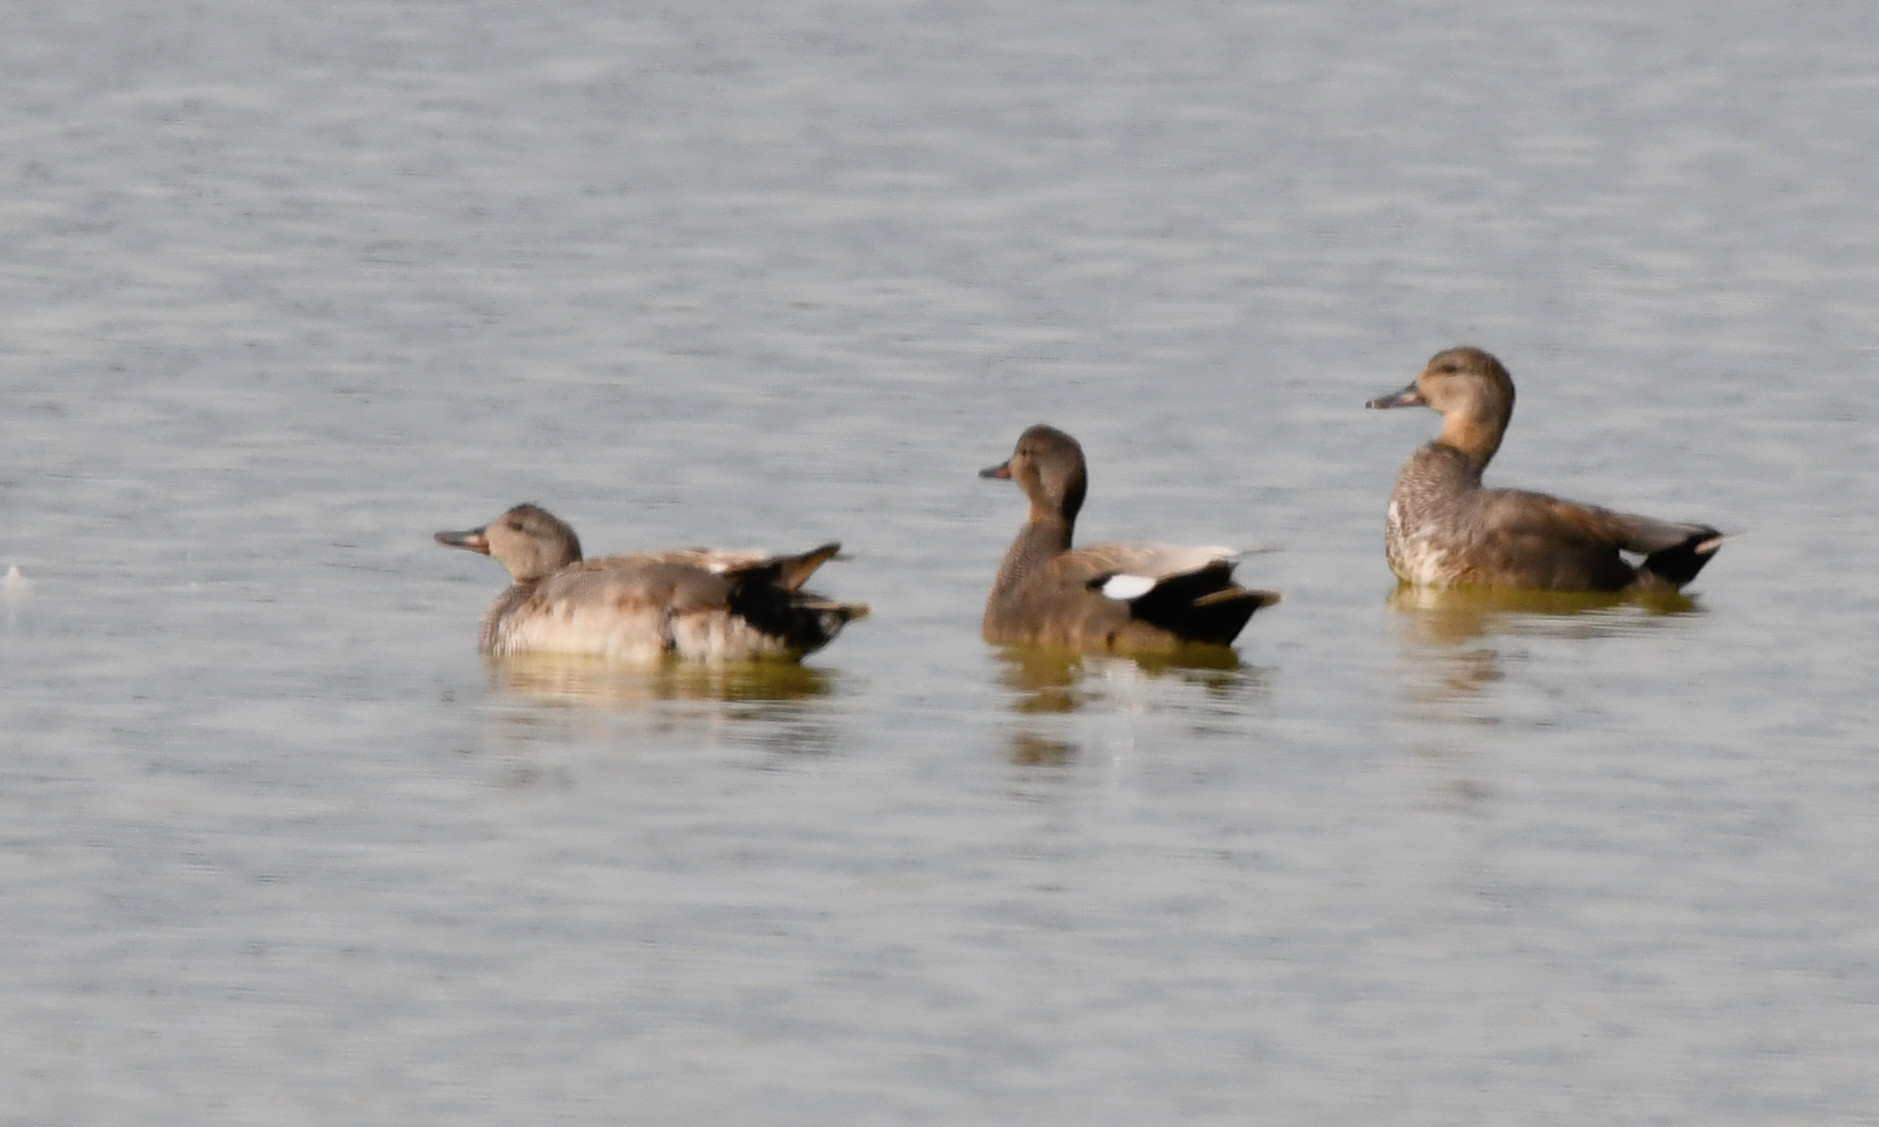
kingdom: Animalia
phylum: Chordata
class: Aves
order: Anseriformes
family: Anatidae
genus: Mareca
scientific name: Mareca strepera
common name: Gadwall
